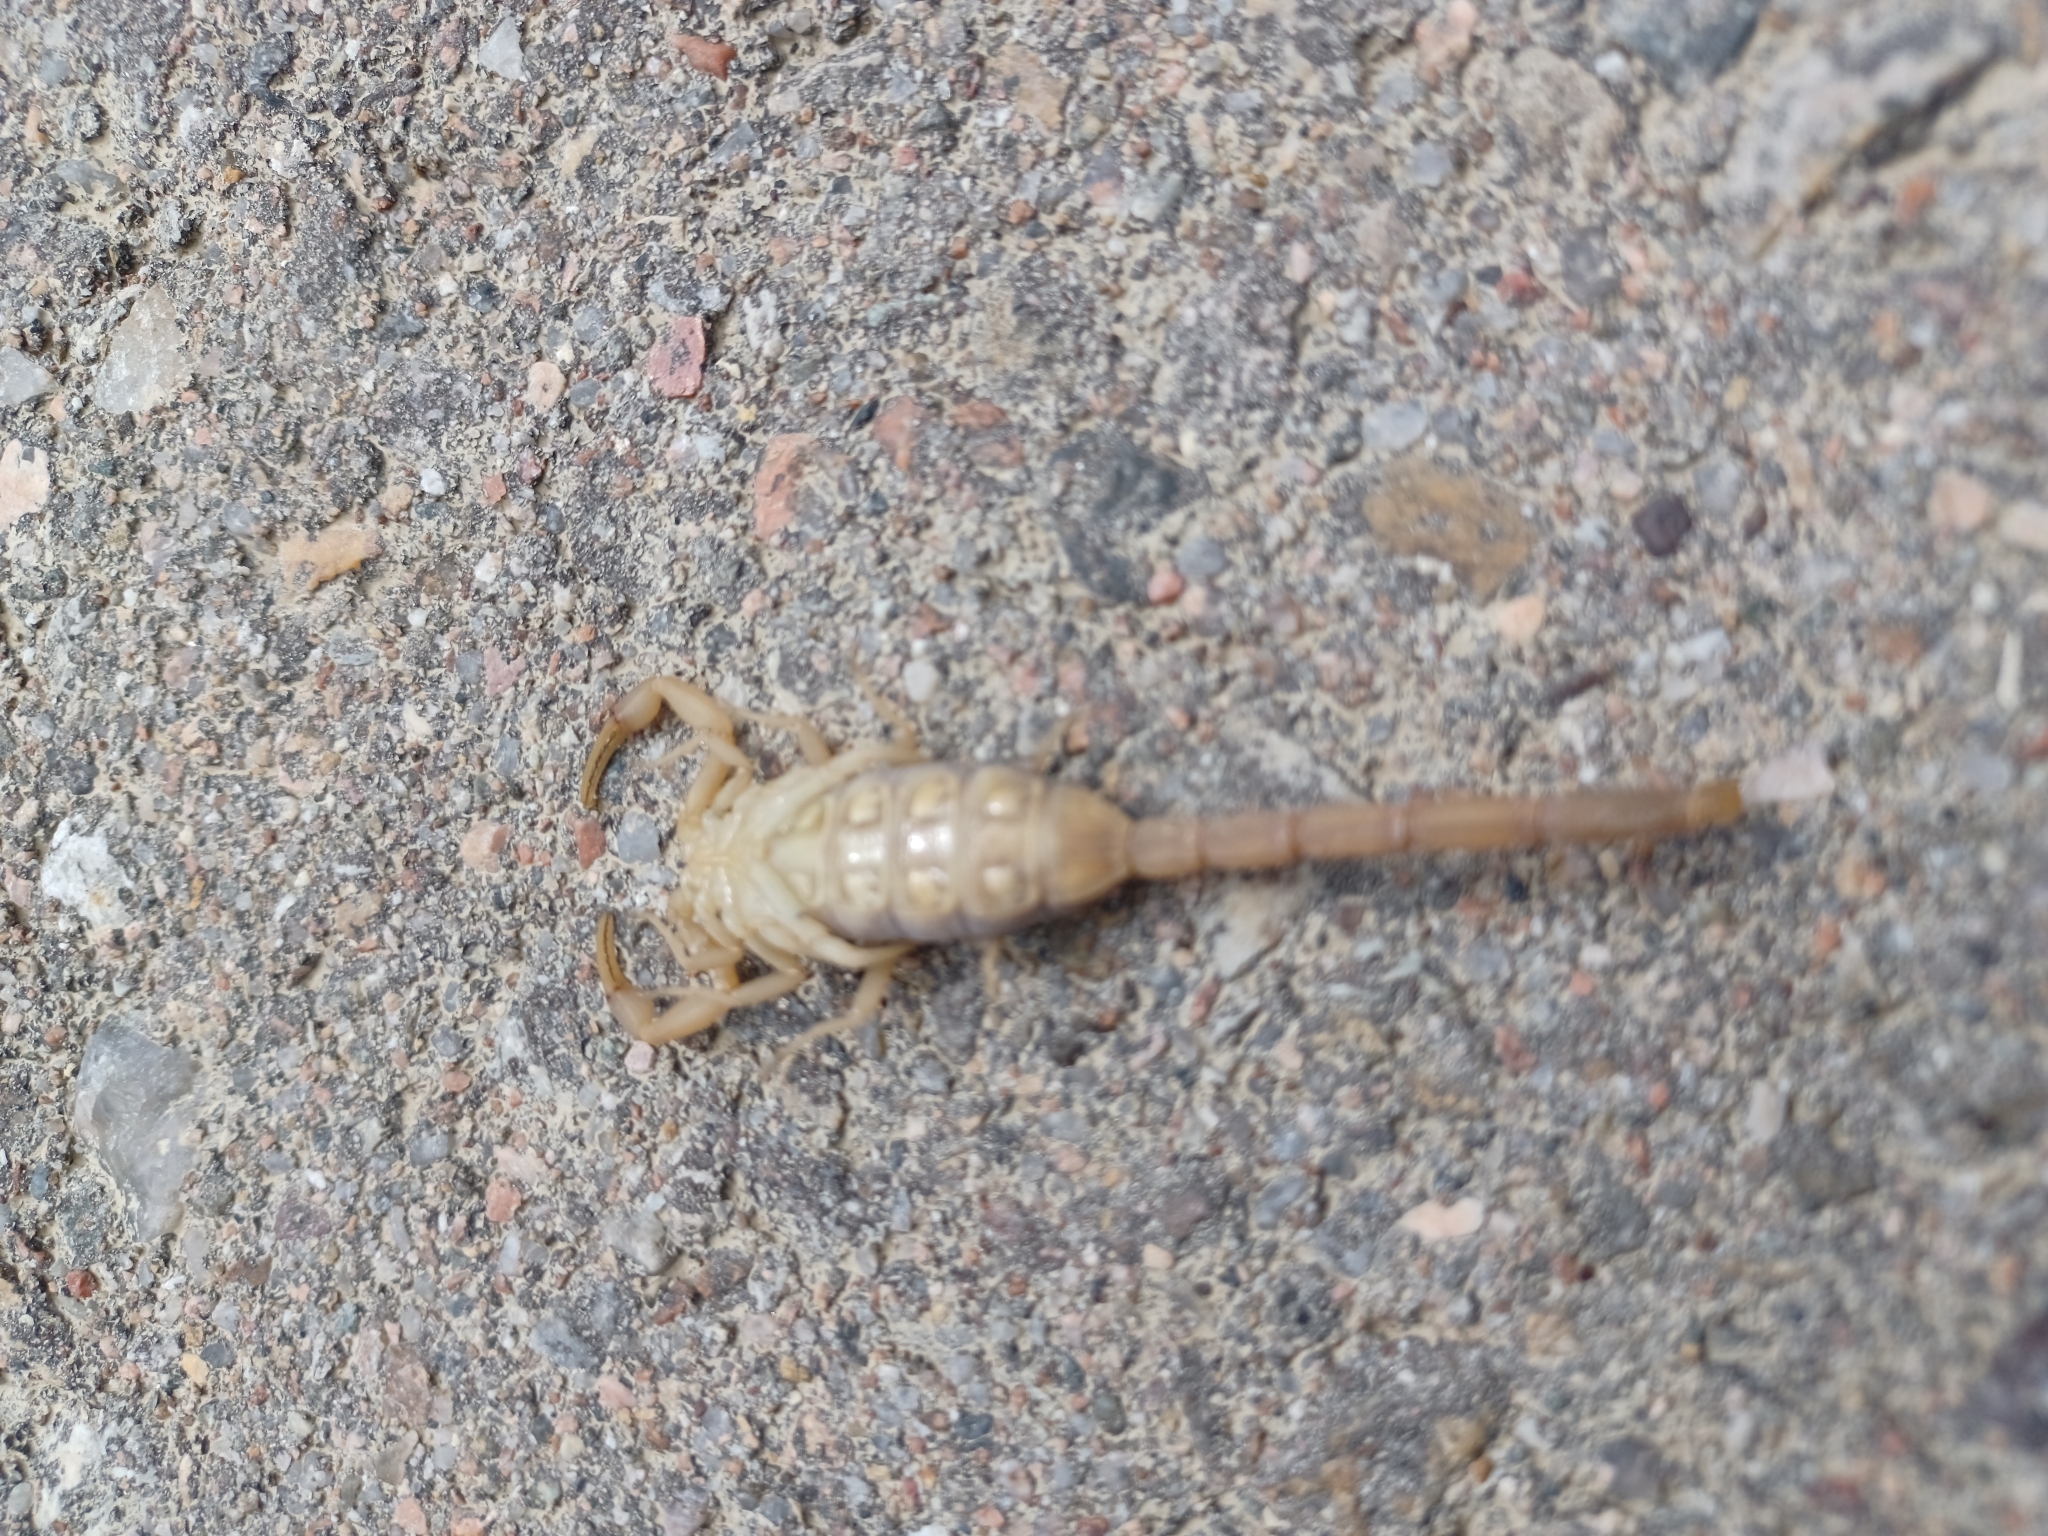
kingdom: Animalia
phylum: Arthropoda
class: Arachnida
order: Scorpiones
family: Buthidae
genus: Centruroides
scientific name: Centruroides vittatus
